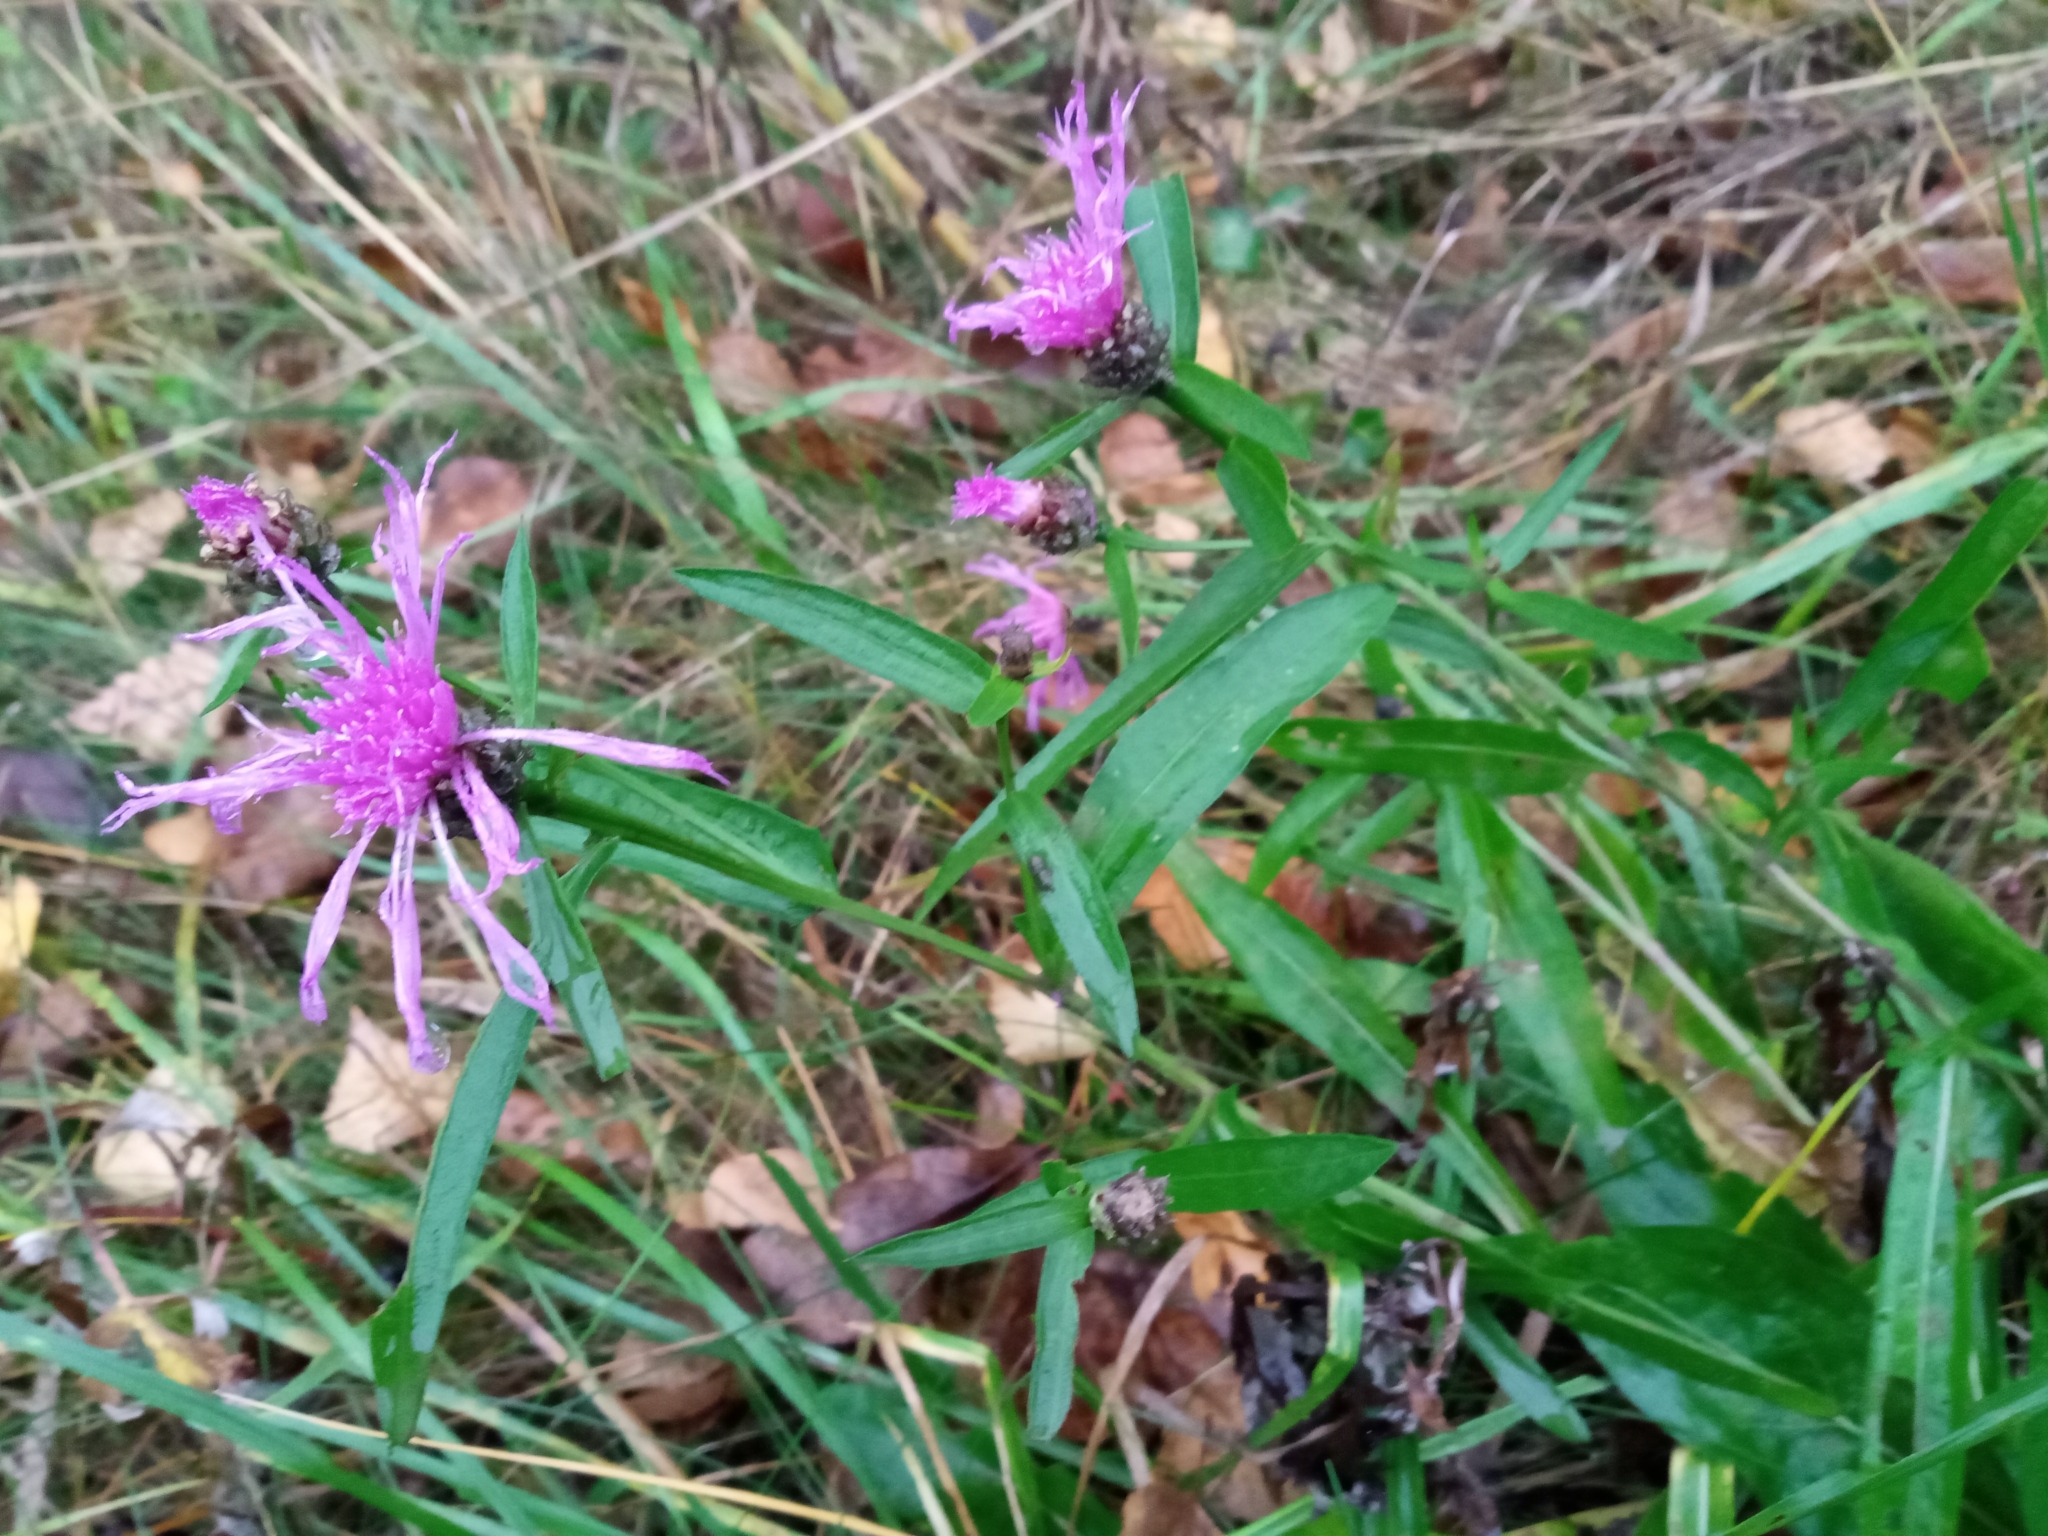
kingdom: Plantae
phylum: Tracheophyta
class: Magnoliopsida
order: Asterales
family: Asteraceae
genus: Centaurea
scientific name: Centaurea jacea
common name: Brown knapweed
